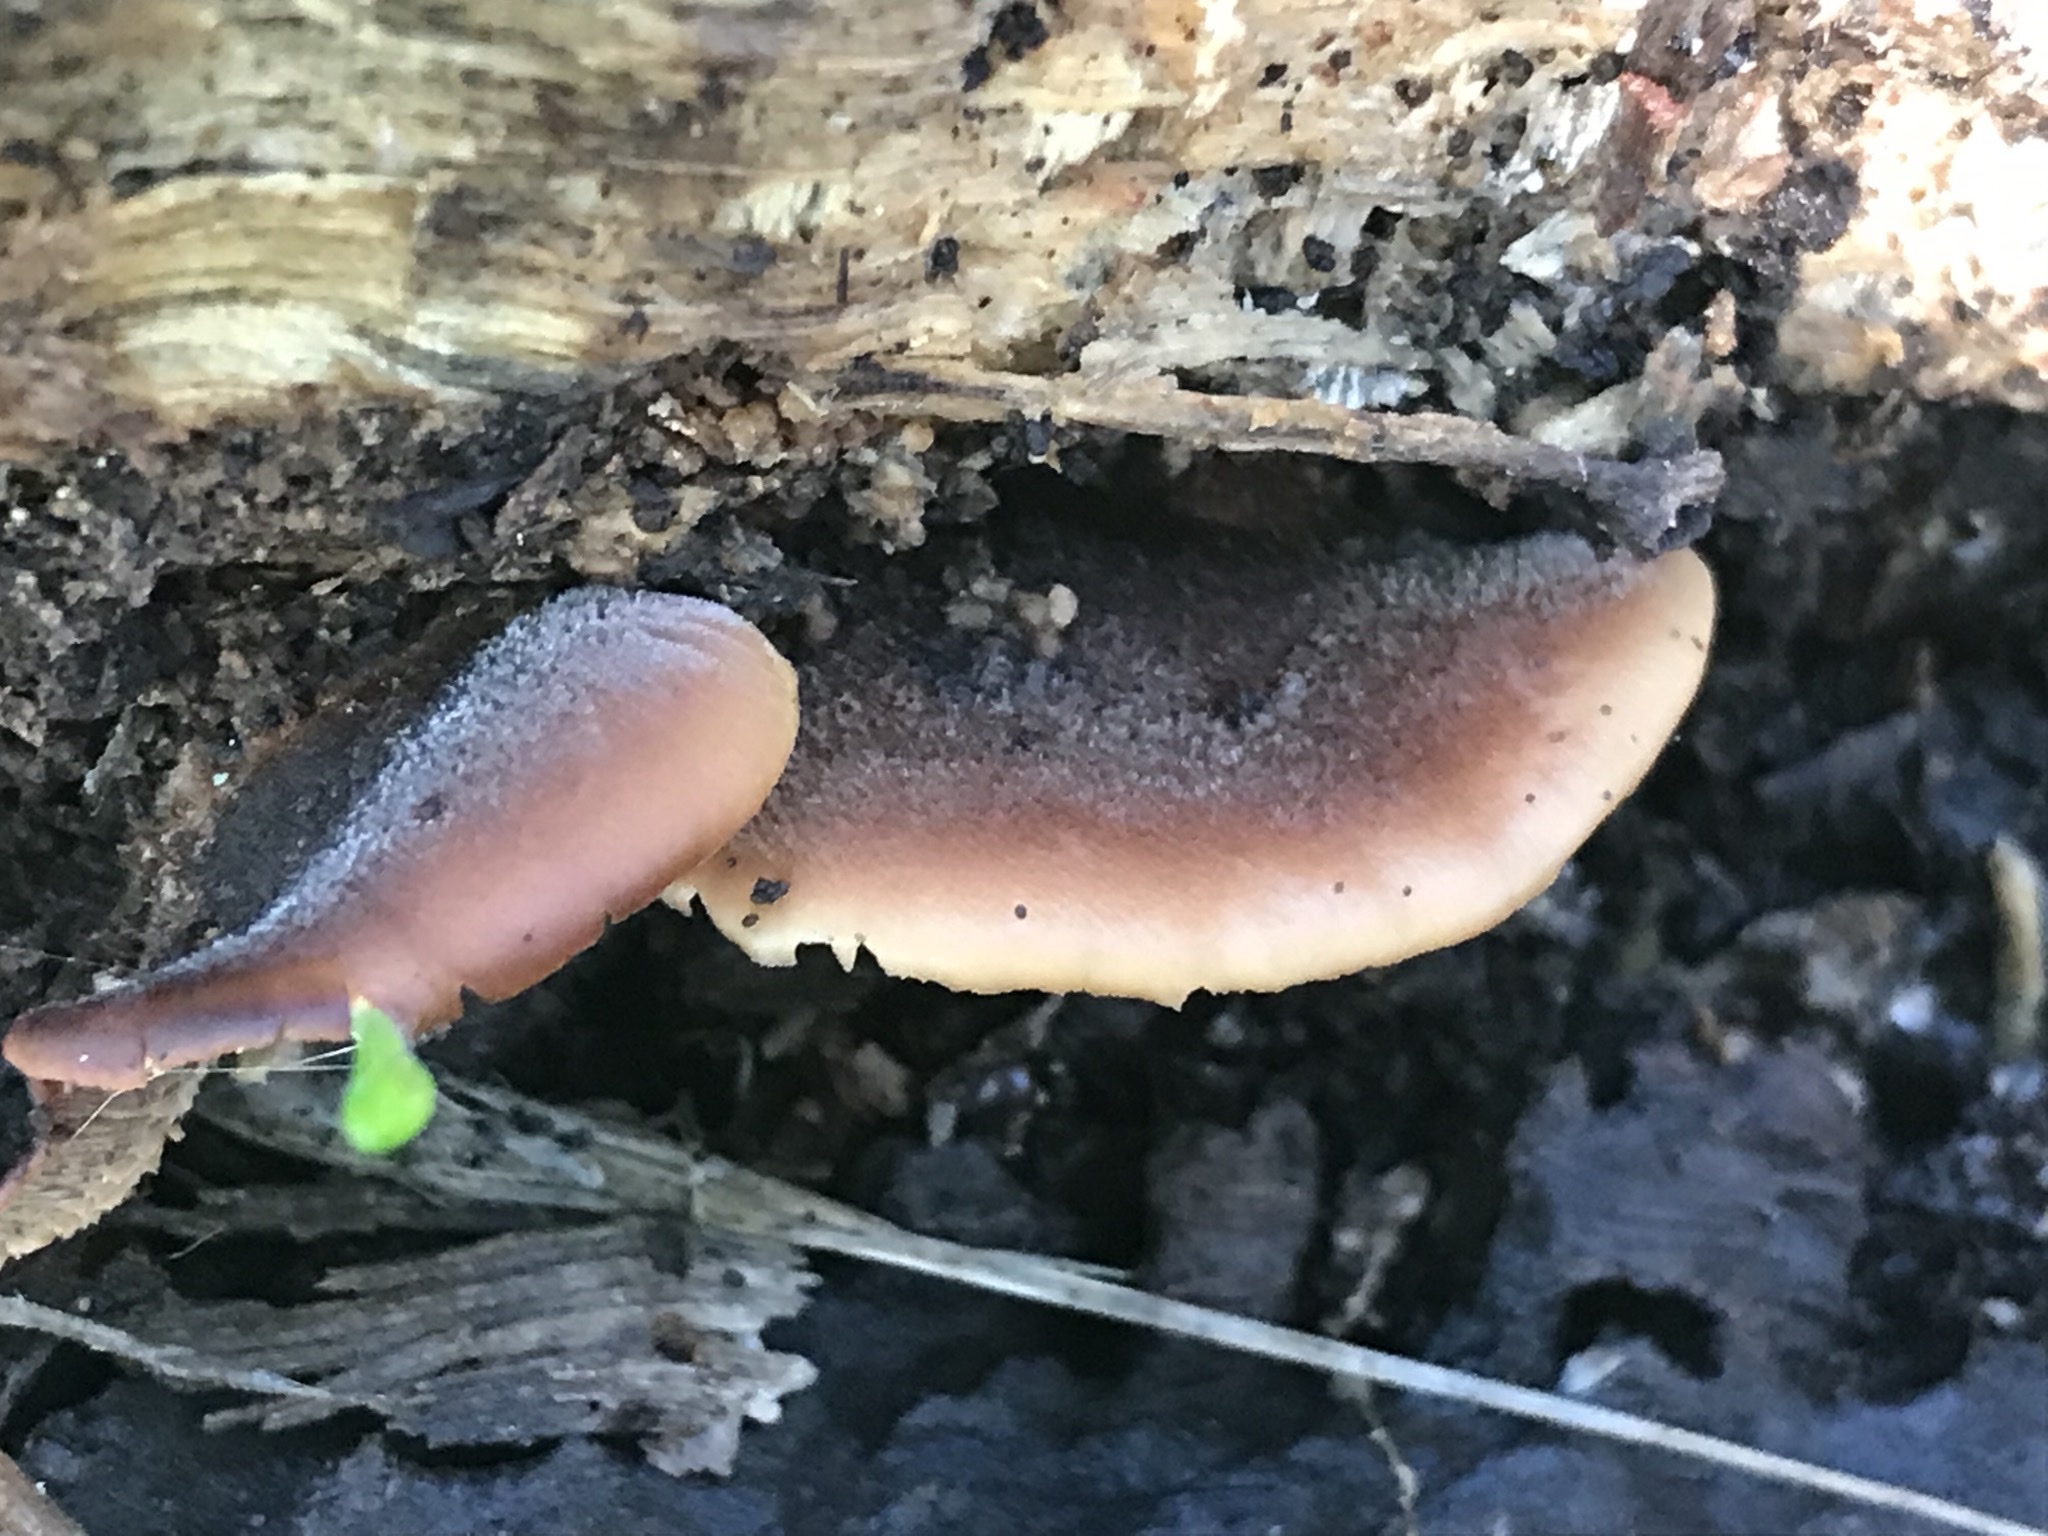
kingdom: Fungi
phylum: Basidiomycota
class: Agaricomycetes
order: Russulales
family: Auriscalpiaceae
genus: Lentinellus
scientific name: Lentinellus ursinus
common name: Bear lentinus
